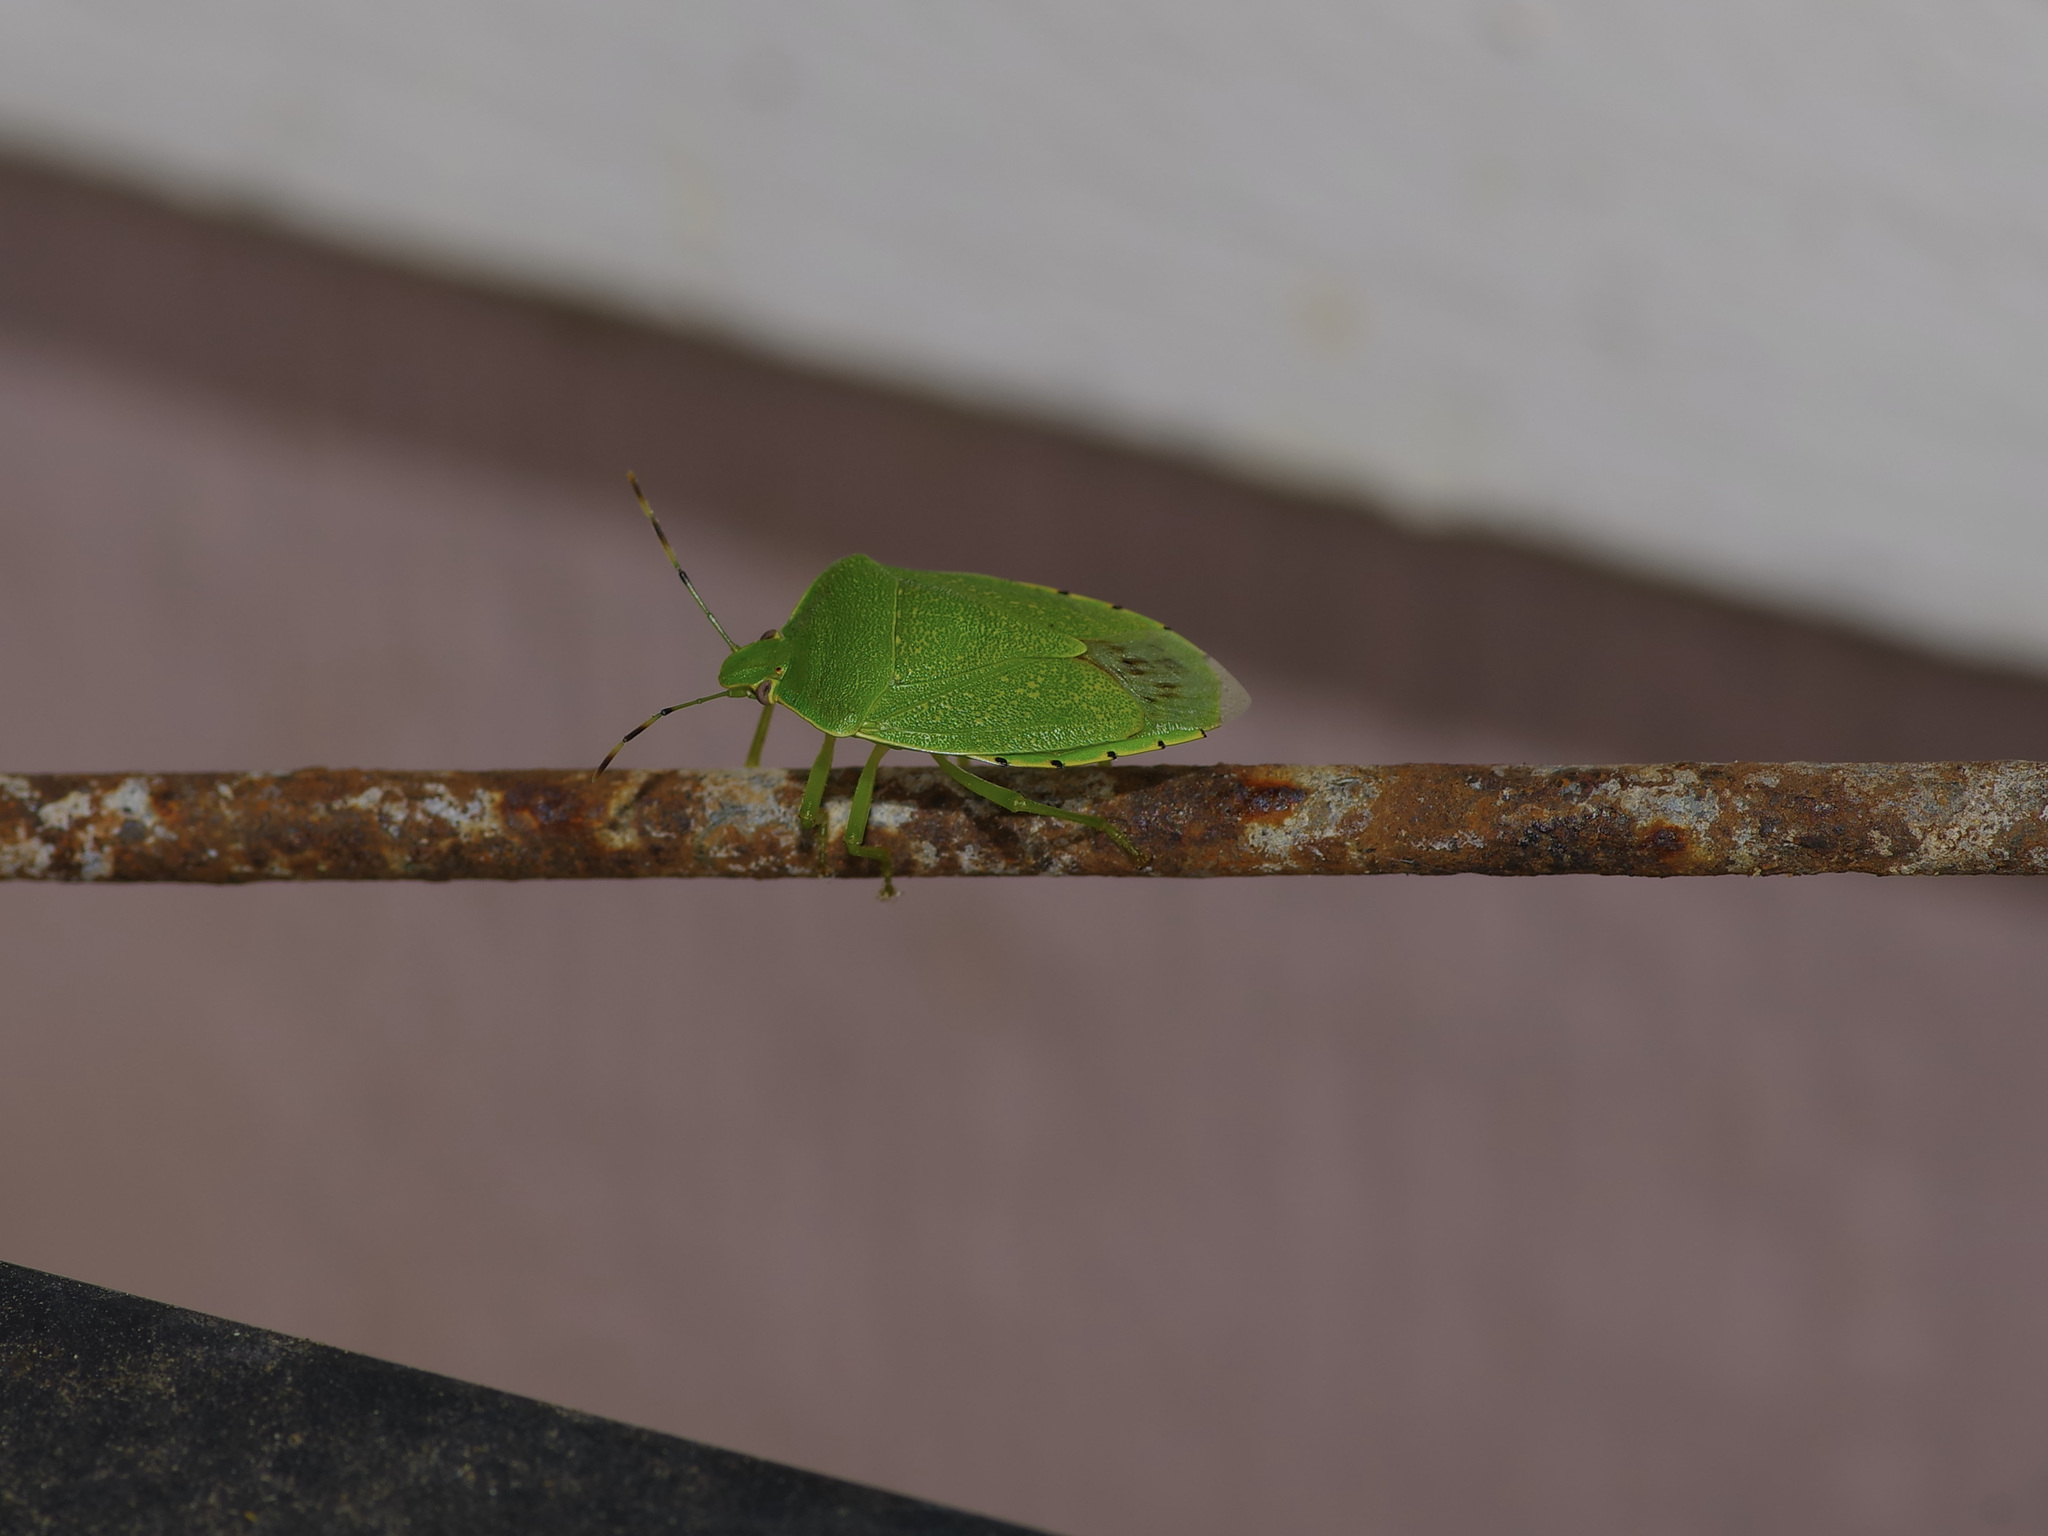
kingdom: Animalia
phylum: Arthropoda
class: Insecta
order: Hemiptera
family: Pentatomidae
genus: Chinavia
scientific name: Chinavia hilaris
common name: Green stink bug
